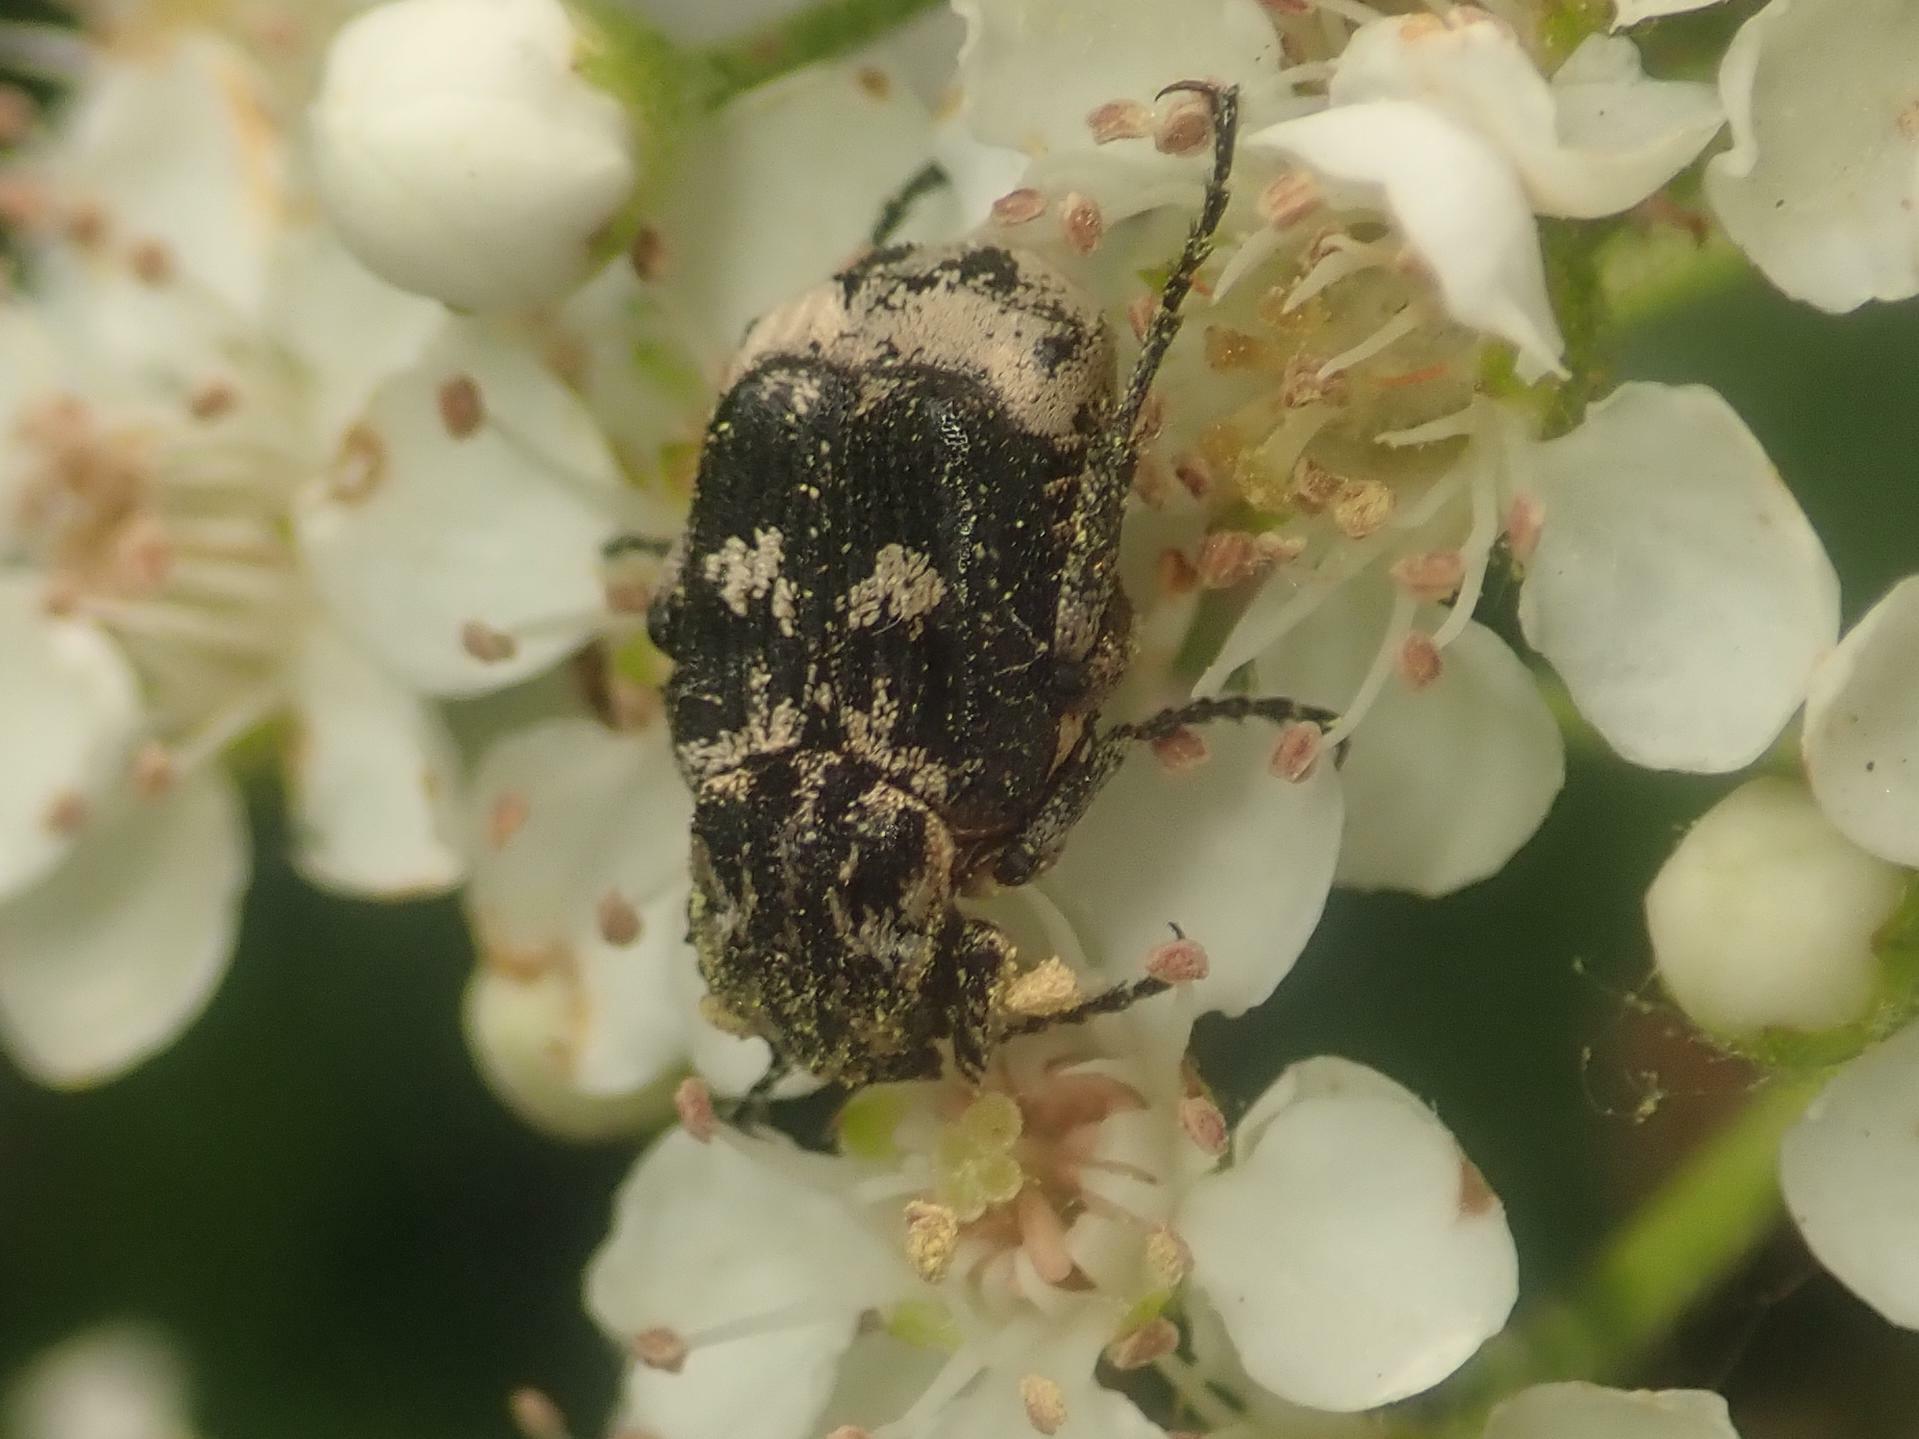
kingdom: Animalia
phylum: Arthropoda
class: Insecta
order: Coleoptera
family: Scarabaeidae
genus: Valgus
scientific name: Valgus hemipterus
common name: Bug flower chafer
